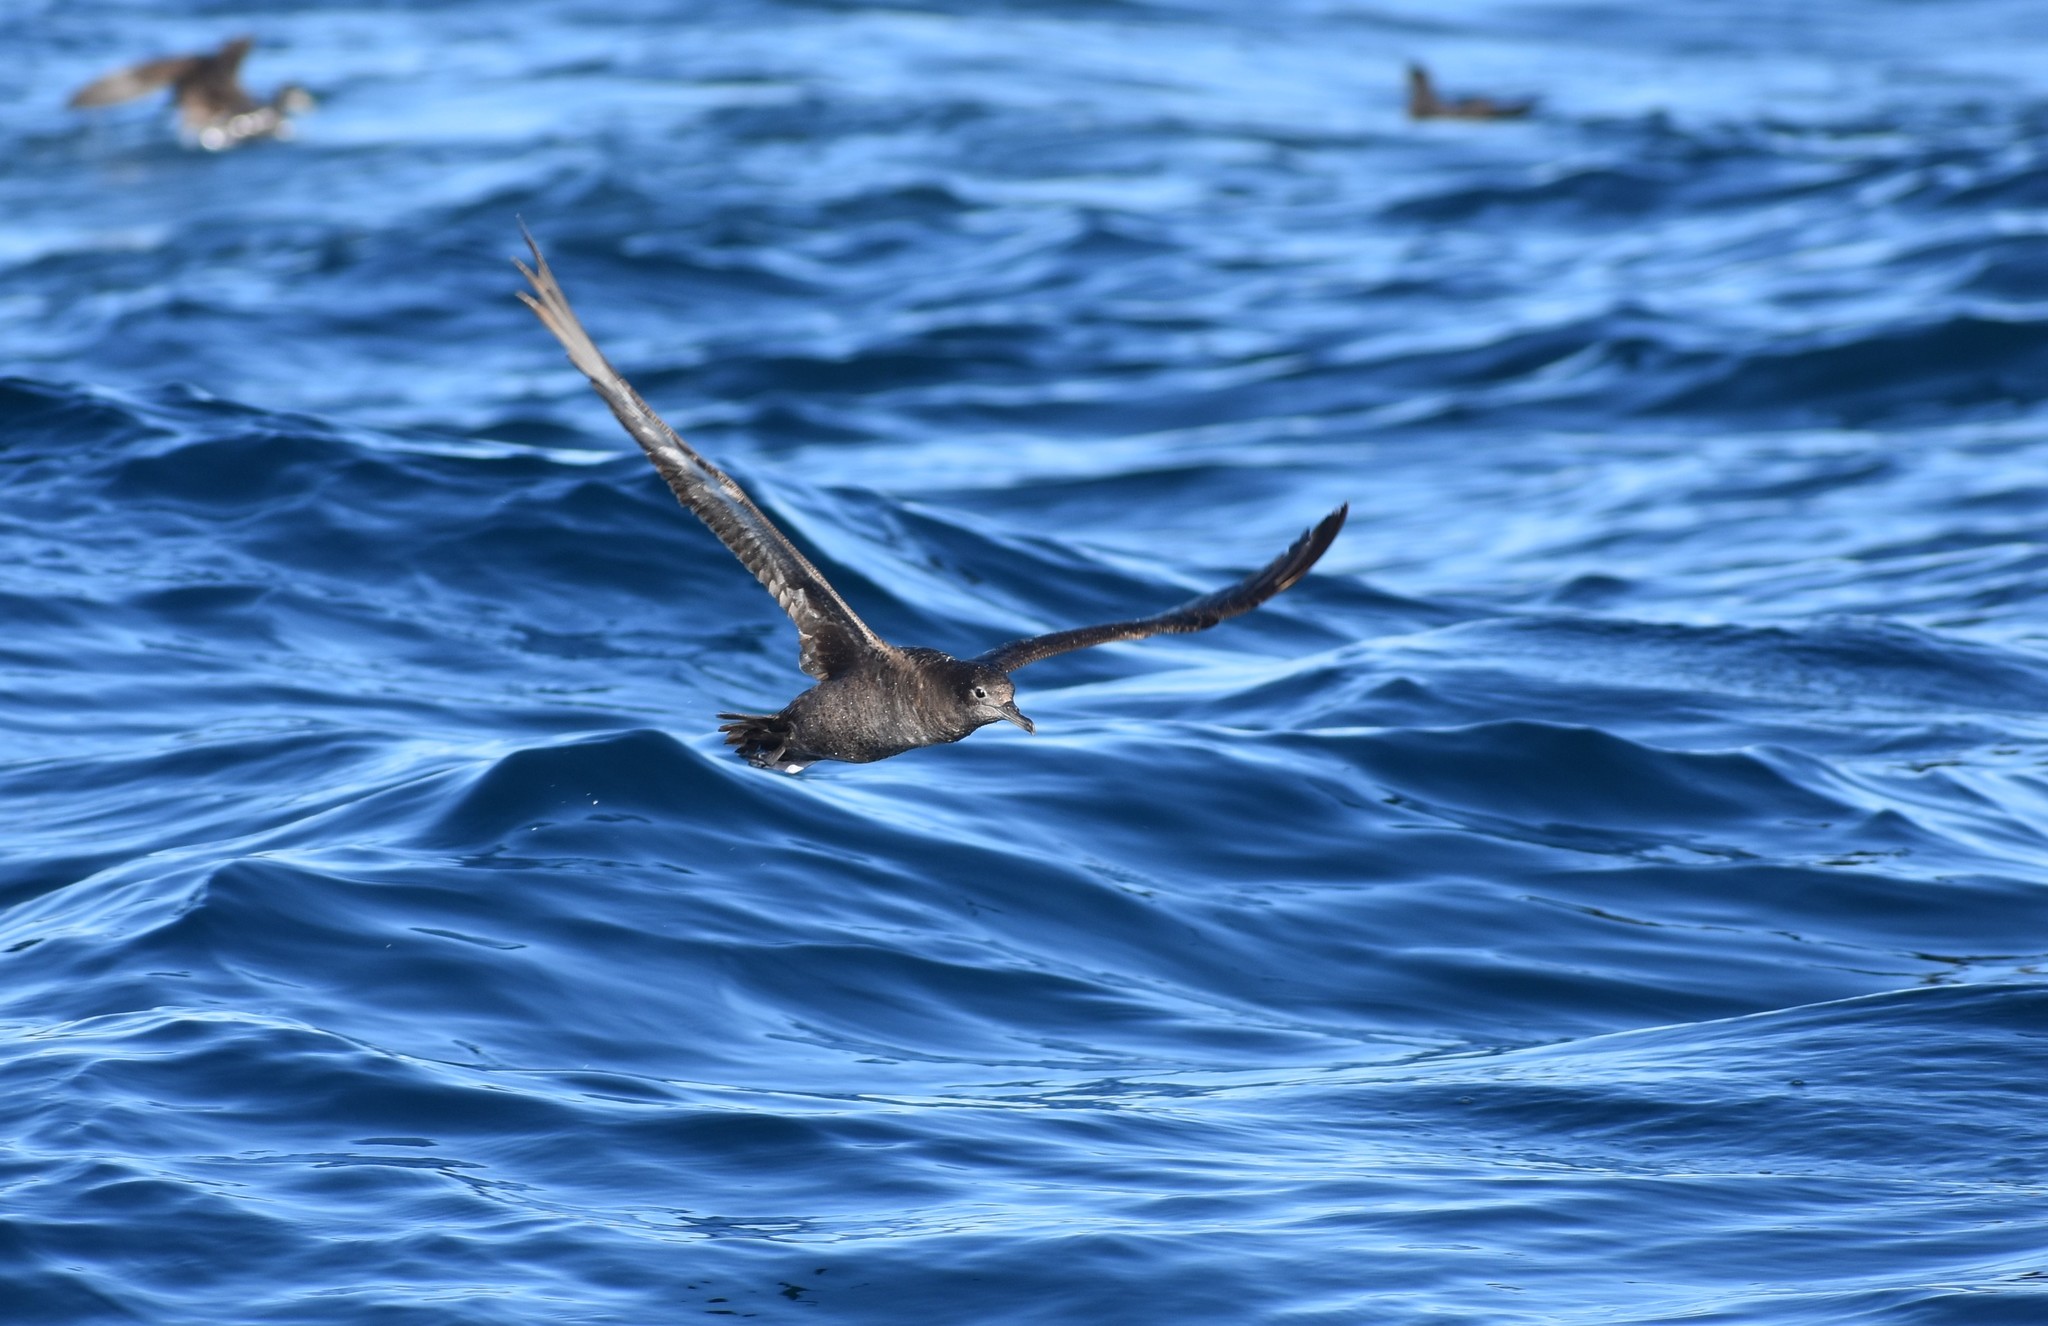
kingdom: Animalia
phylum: Chordata
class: Aves
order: Procellariiformes
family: Procellariidae
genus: Puffinus
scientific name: Puffinus griseus
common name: Sooty shearwater
